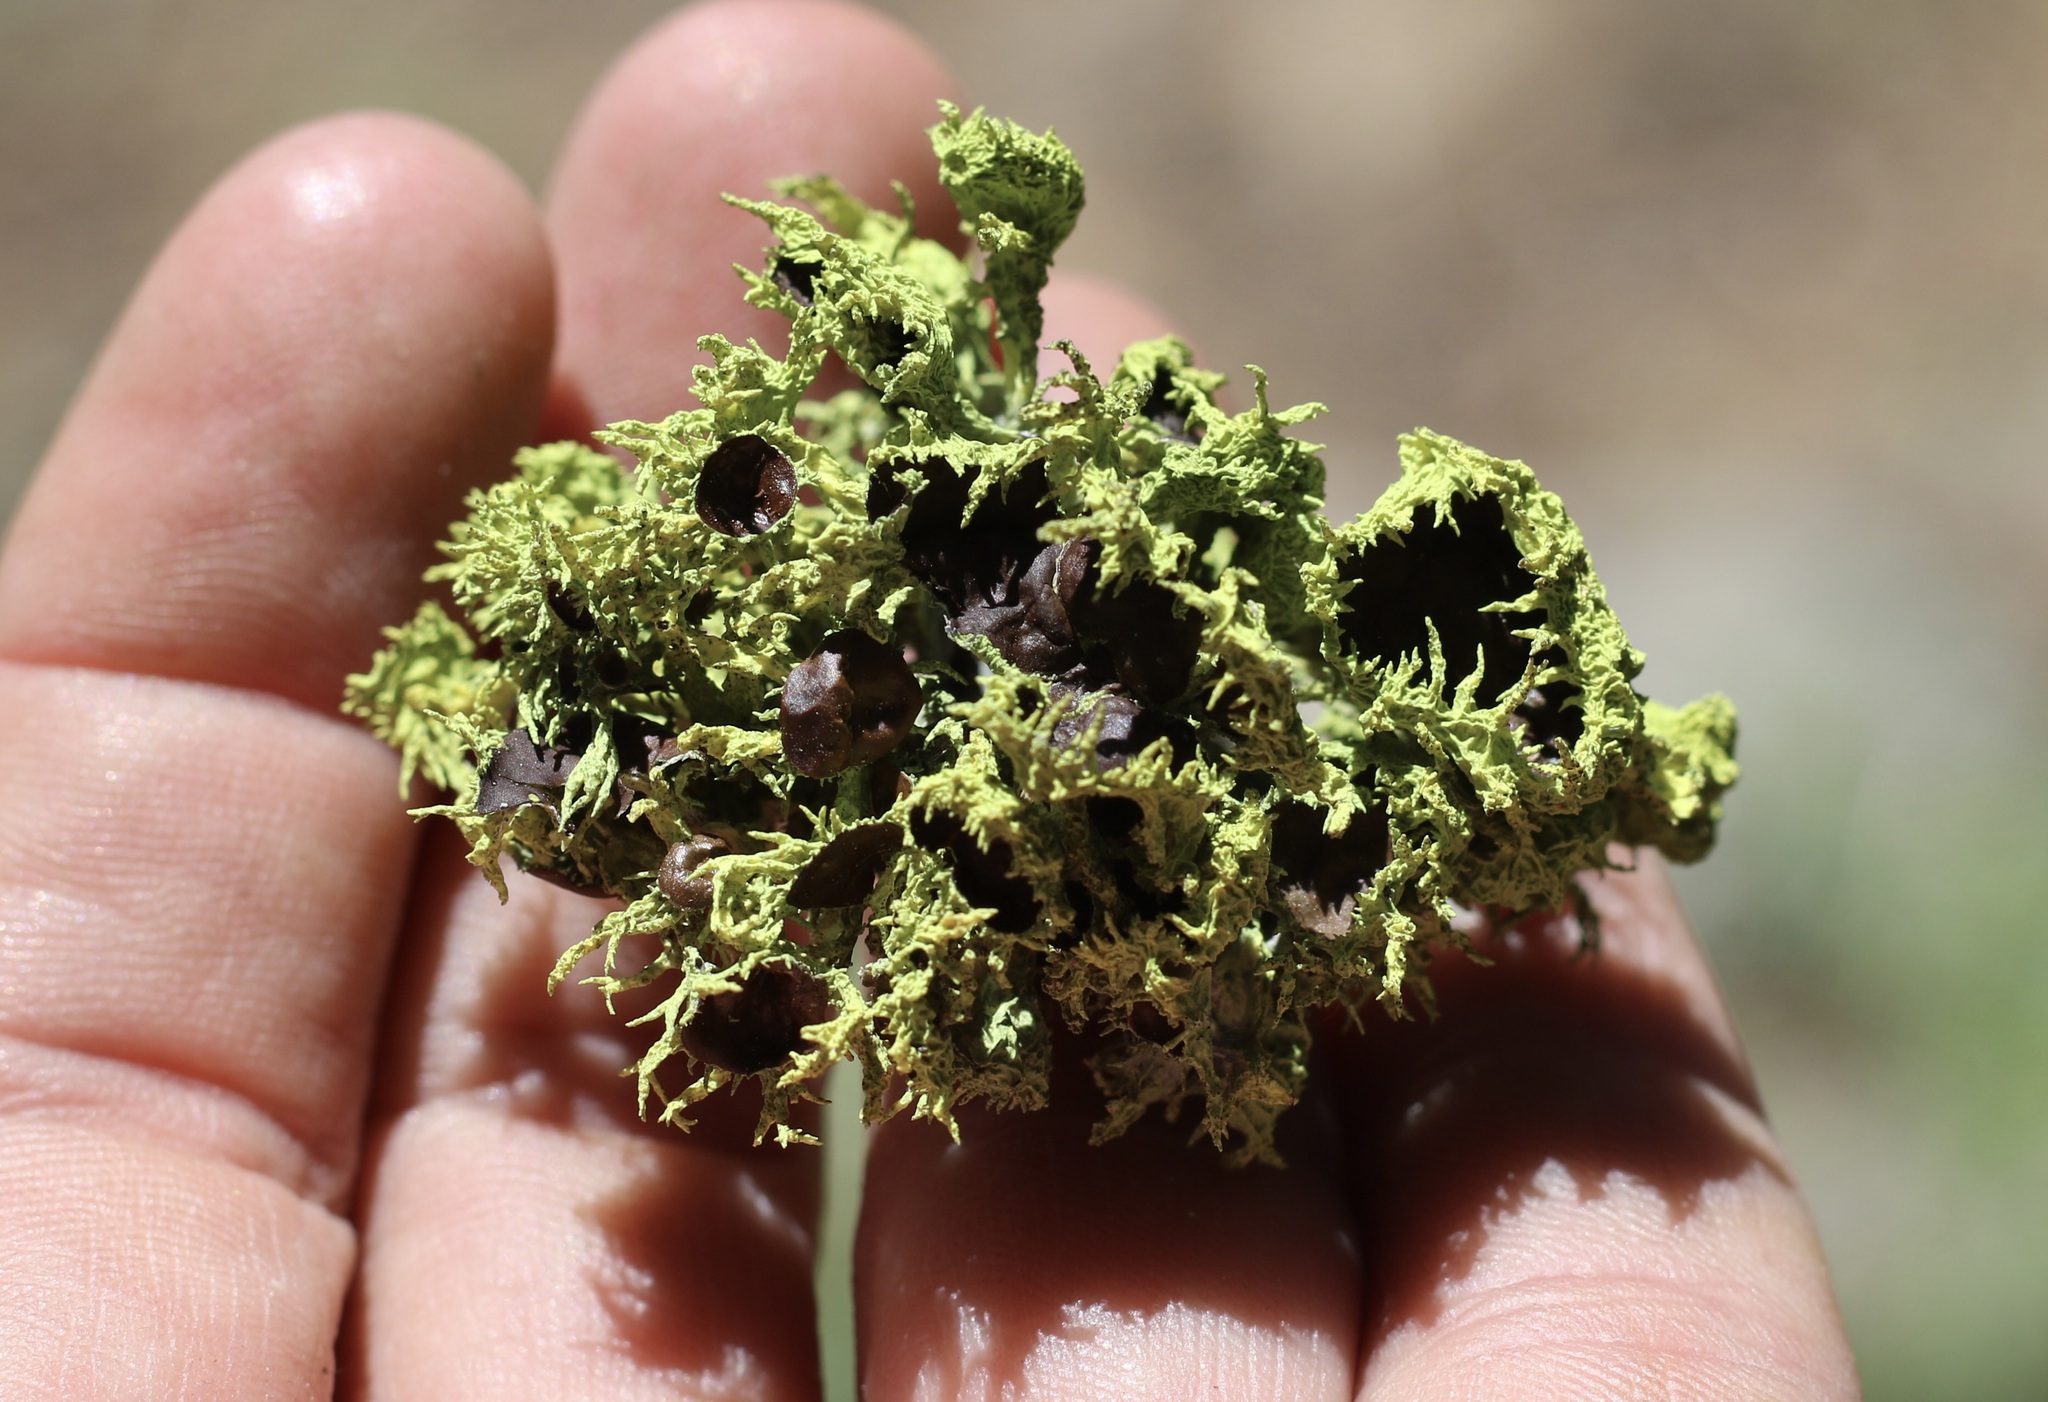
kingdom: Fungi
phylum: Ascomycota
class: Lecanoromycetes
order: Lecanorales
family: Parmeliaceae
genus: Letharia
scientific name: Letharia columbiana
